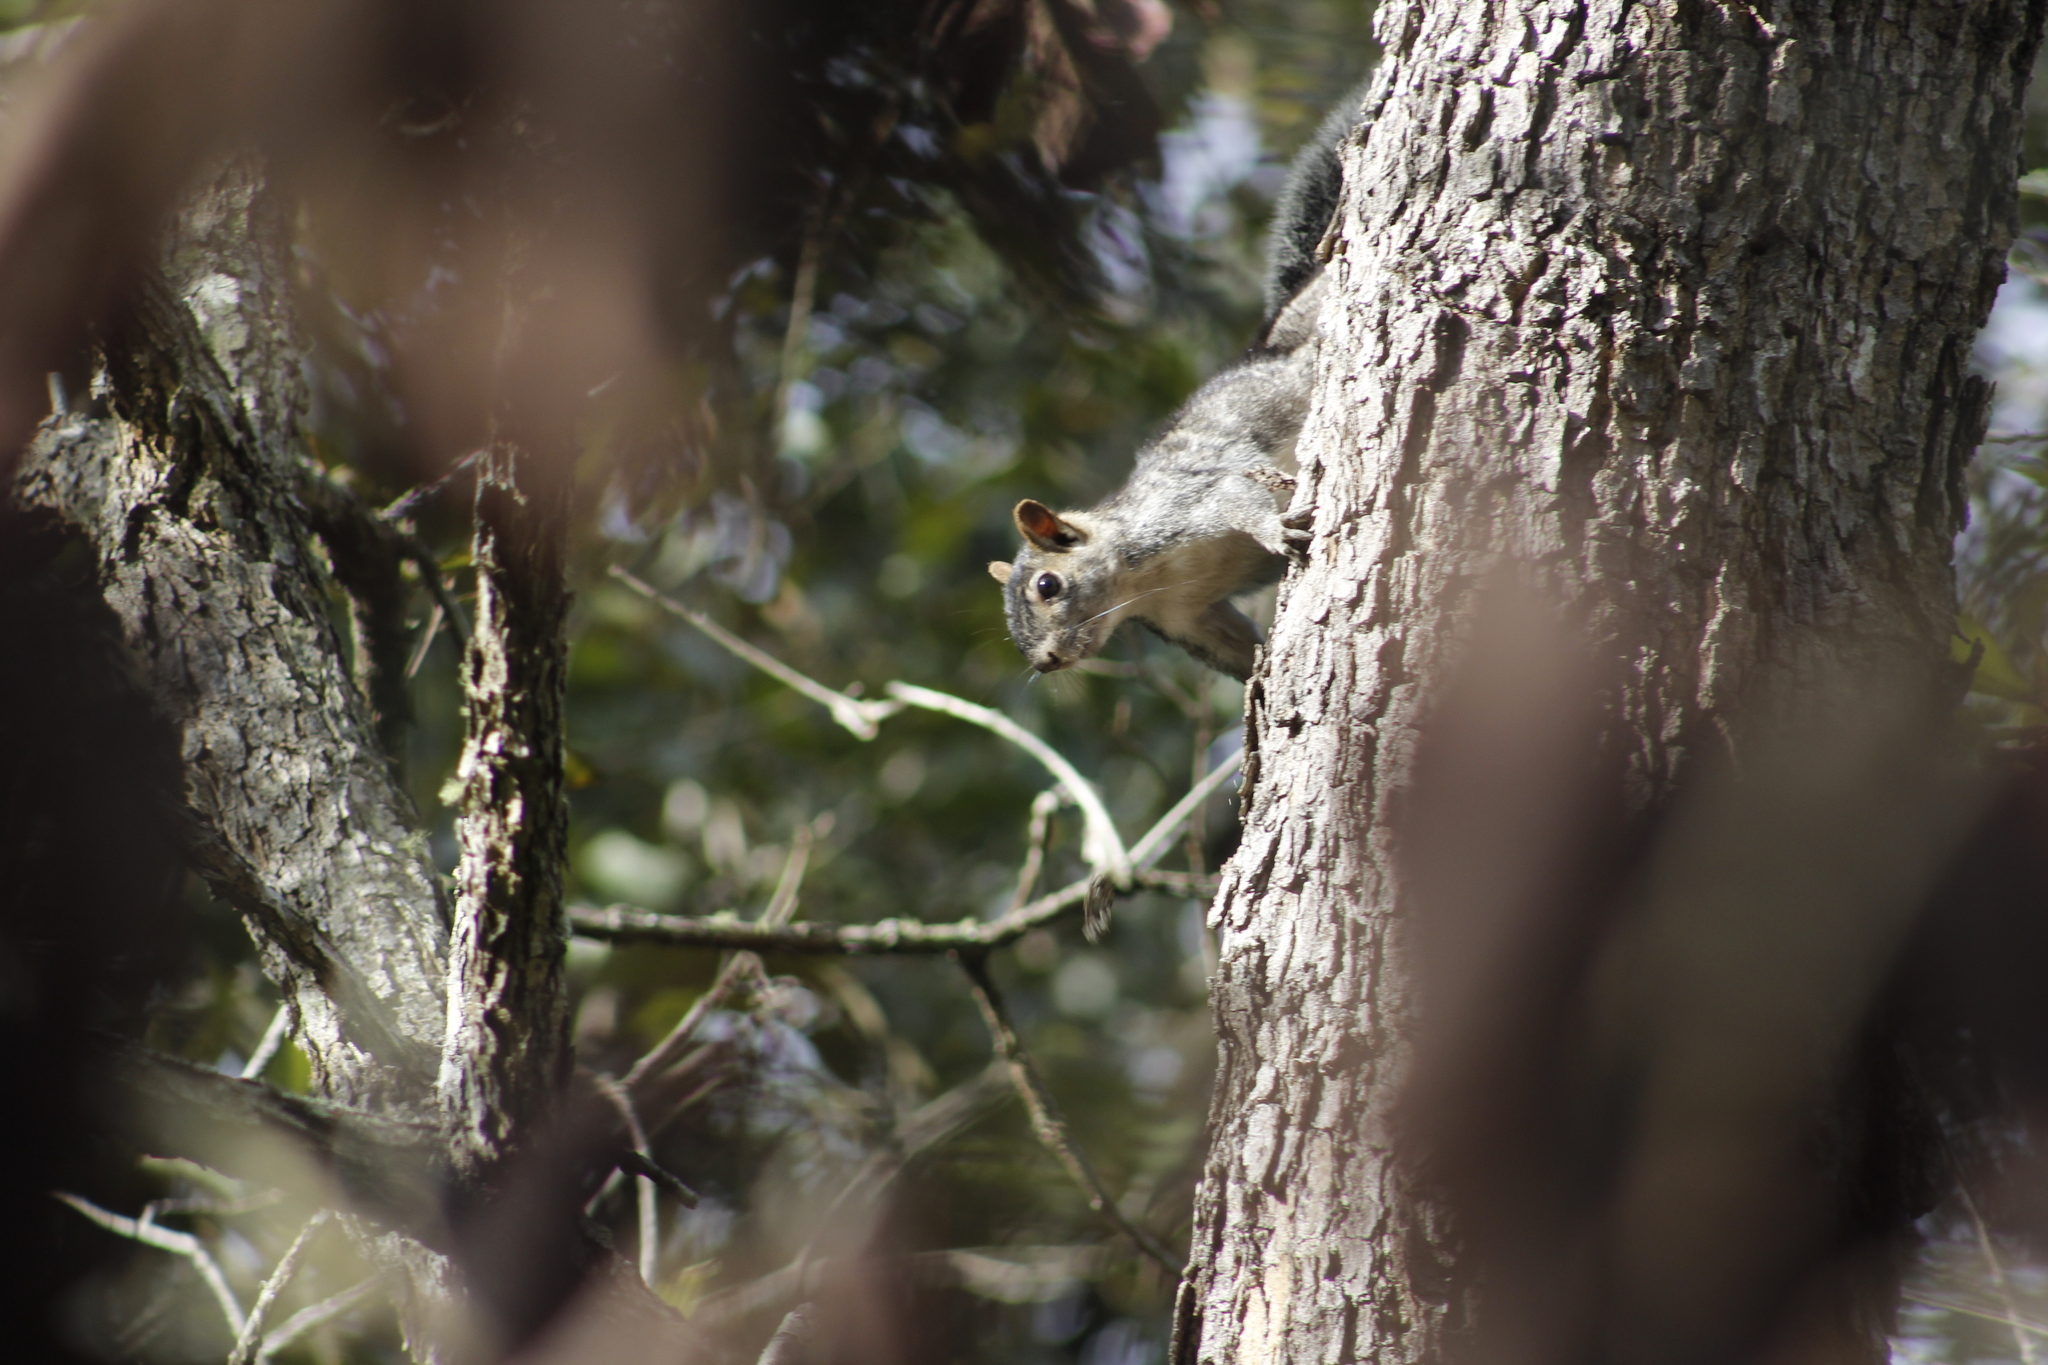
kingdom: Animalia
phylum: Chordata
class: Mammalia
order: Rodentia
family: Sciuridae
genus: Sciurus
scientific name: Sciurus colliaei
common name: Collie's squirrel
